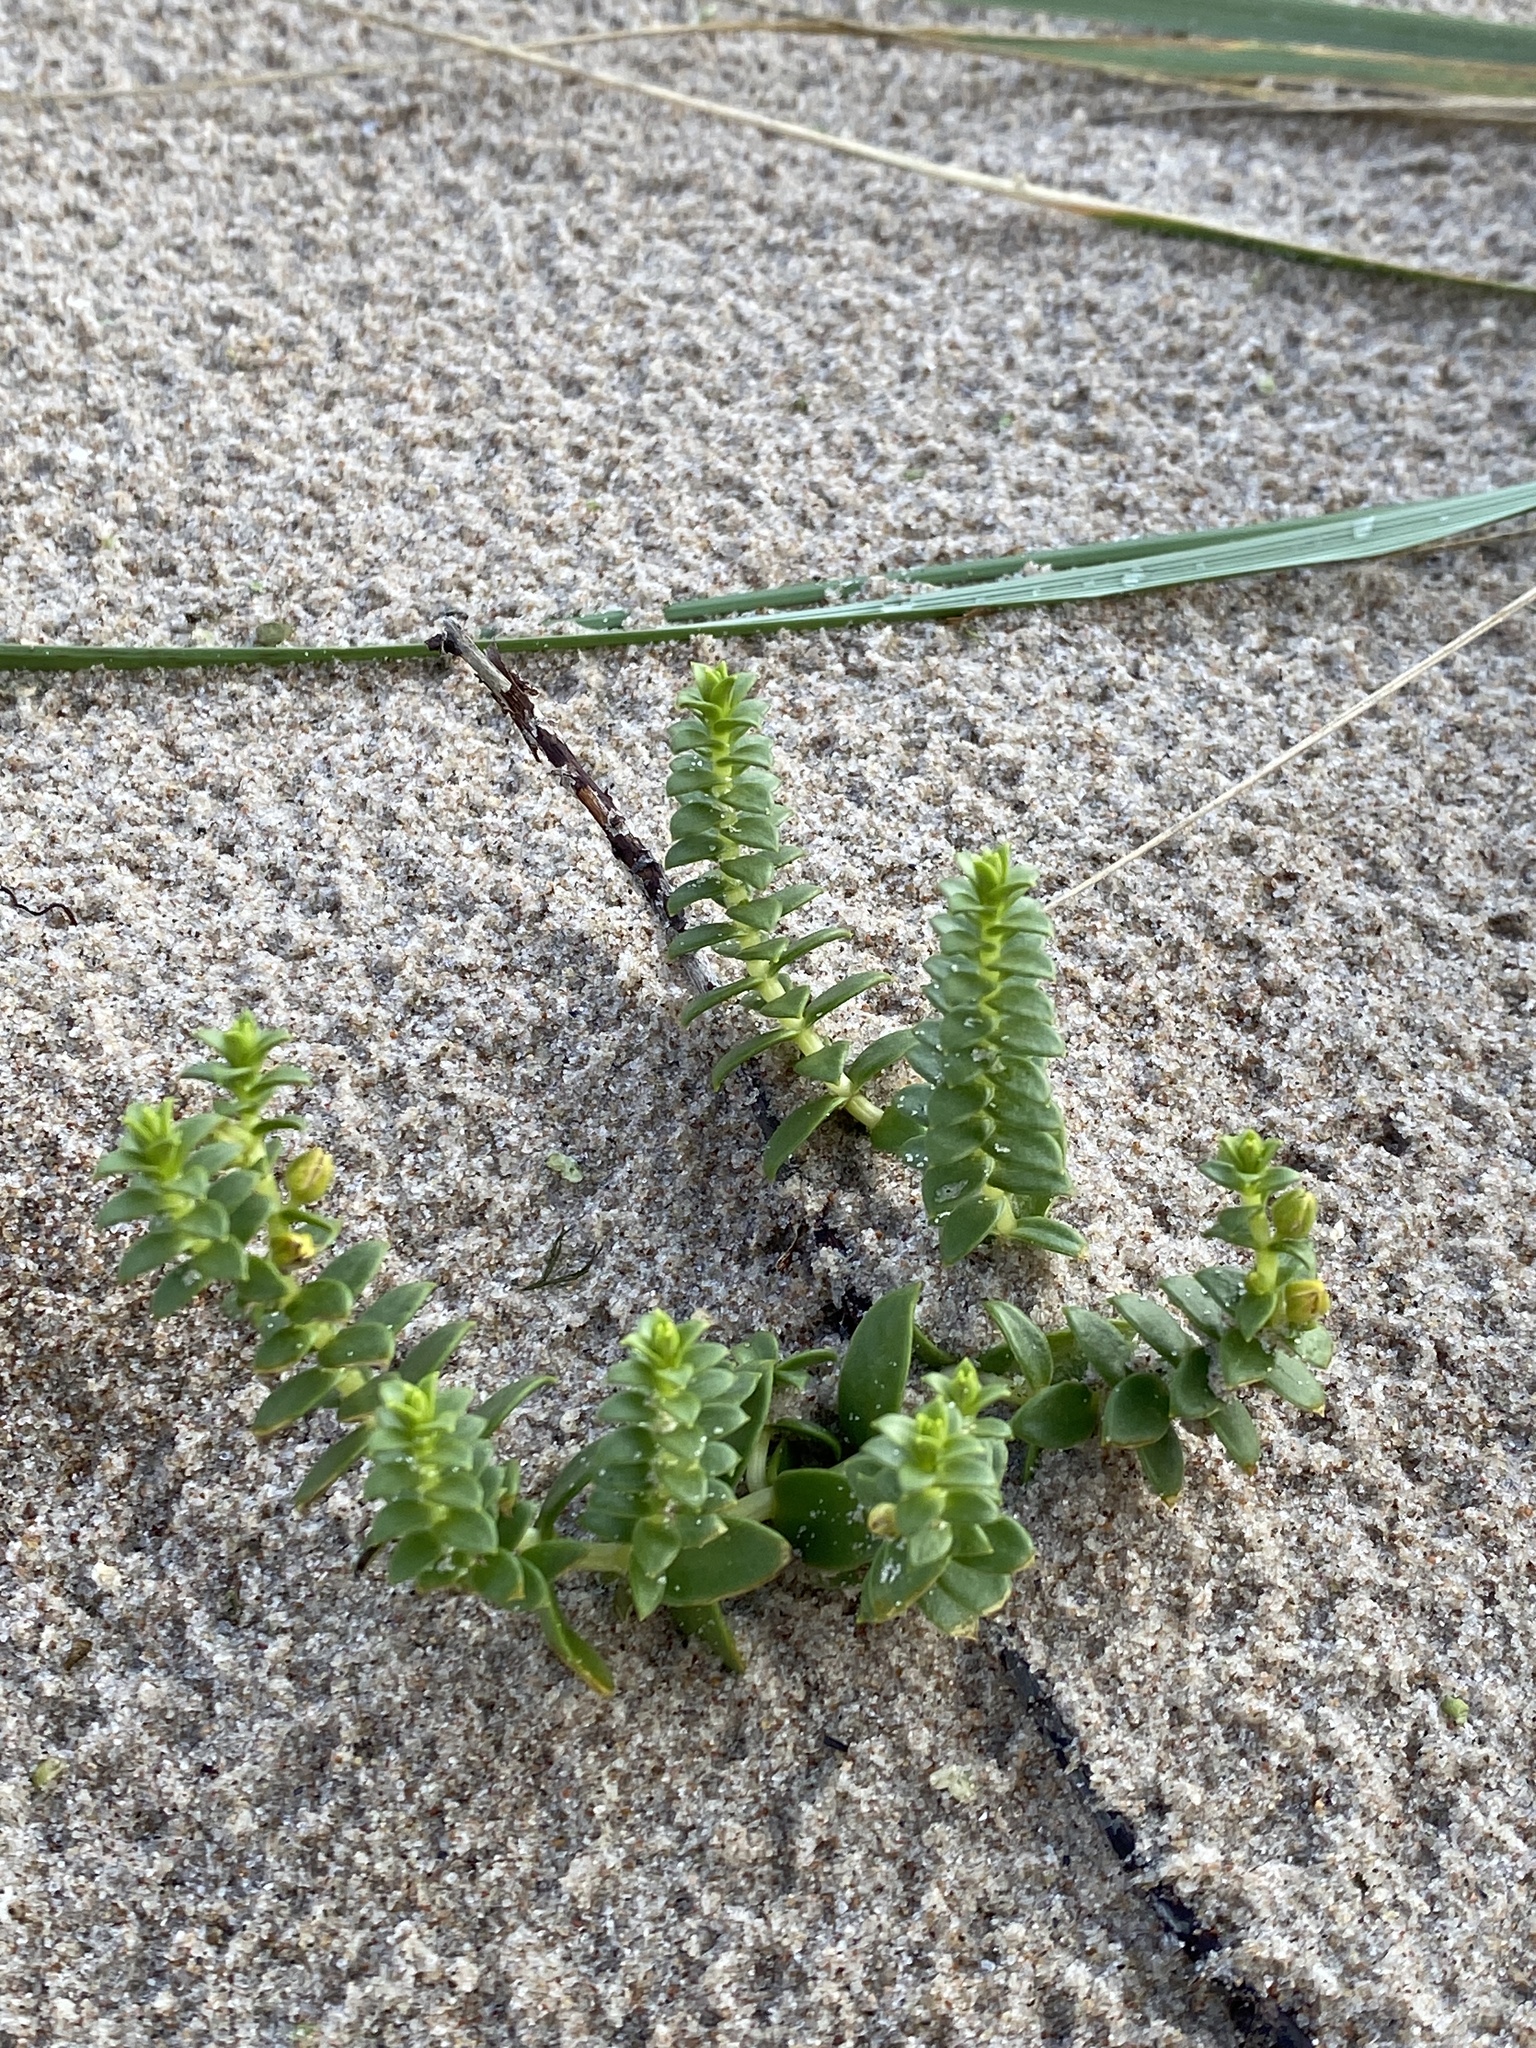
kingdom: Plantae
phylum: Tracheophyta
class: Magnoliopsida
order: Caryophyllales
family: Caryophyllaceae
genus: Honckenya
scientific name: Honckenya peploides
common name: Sea sandwort
